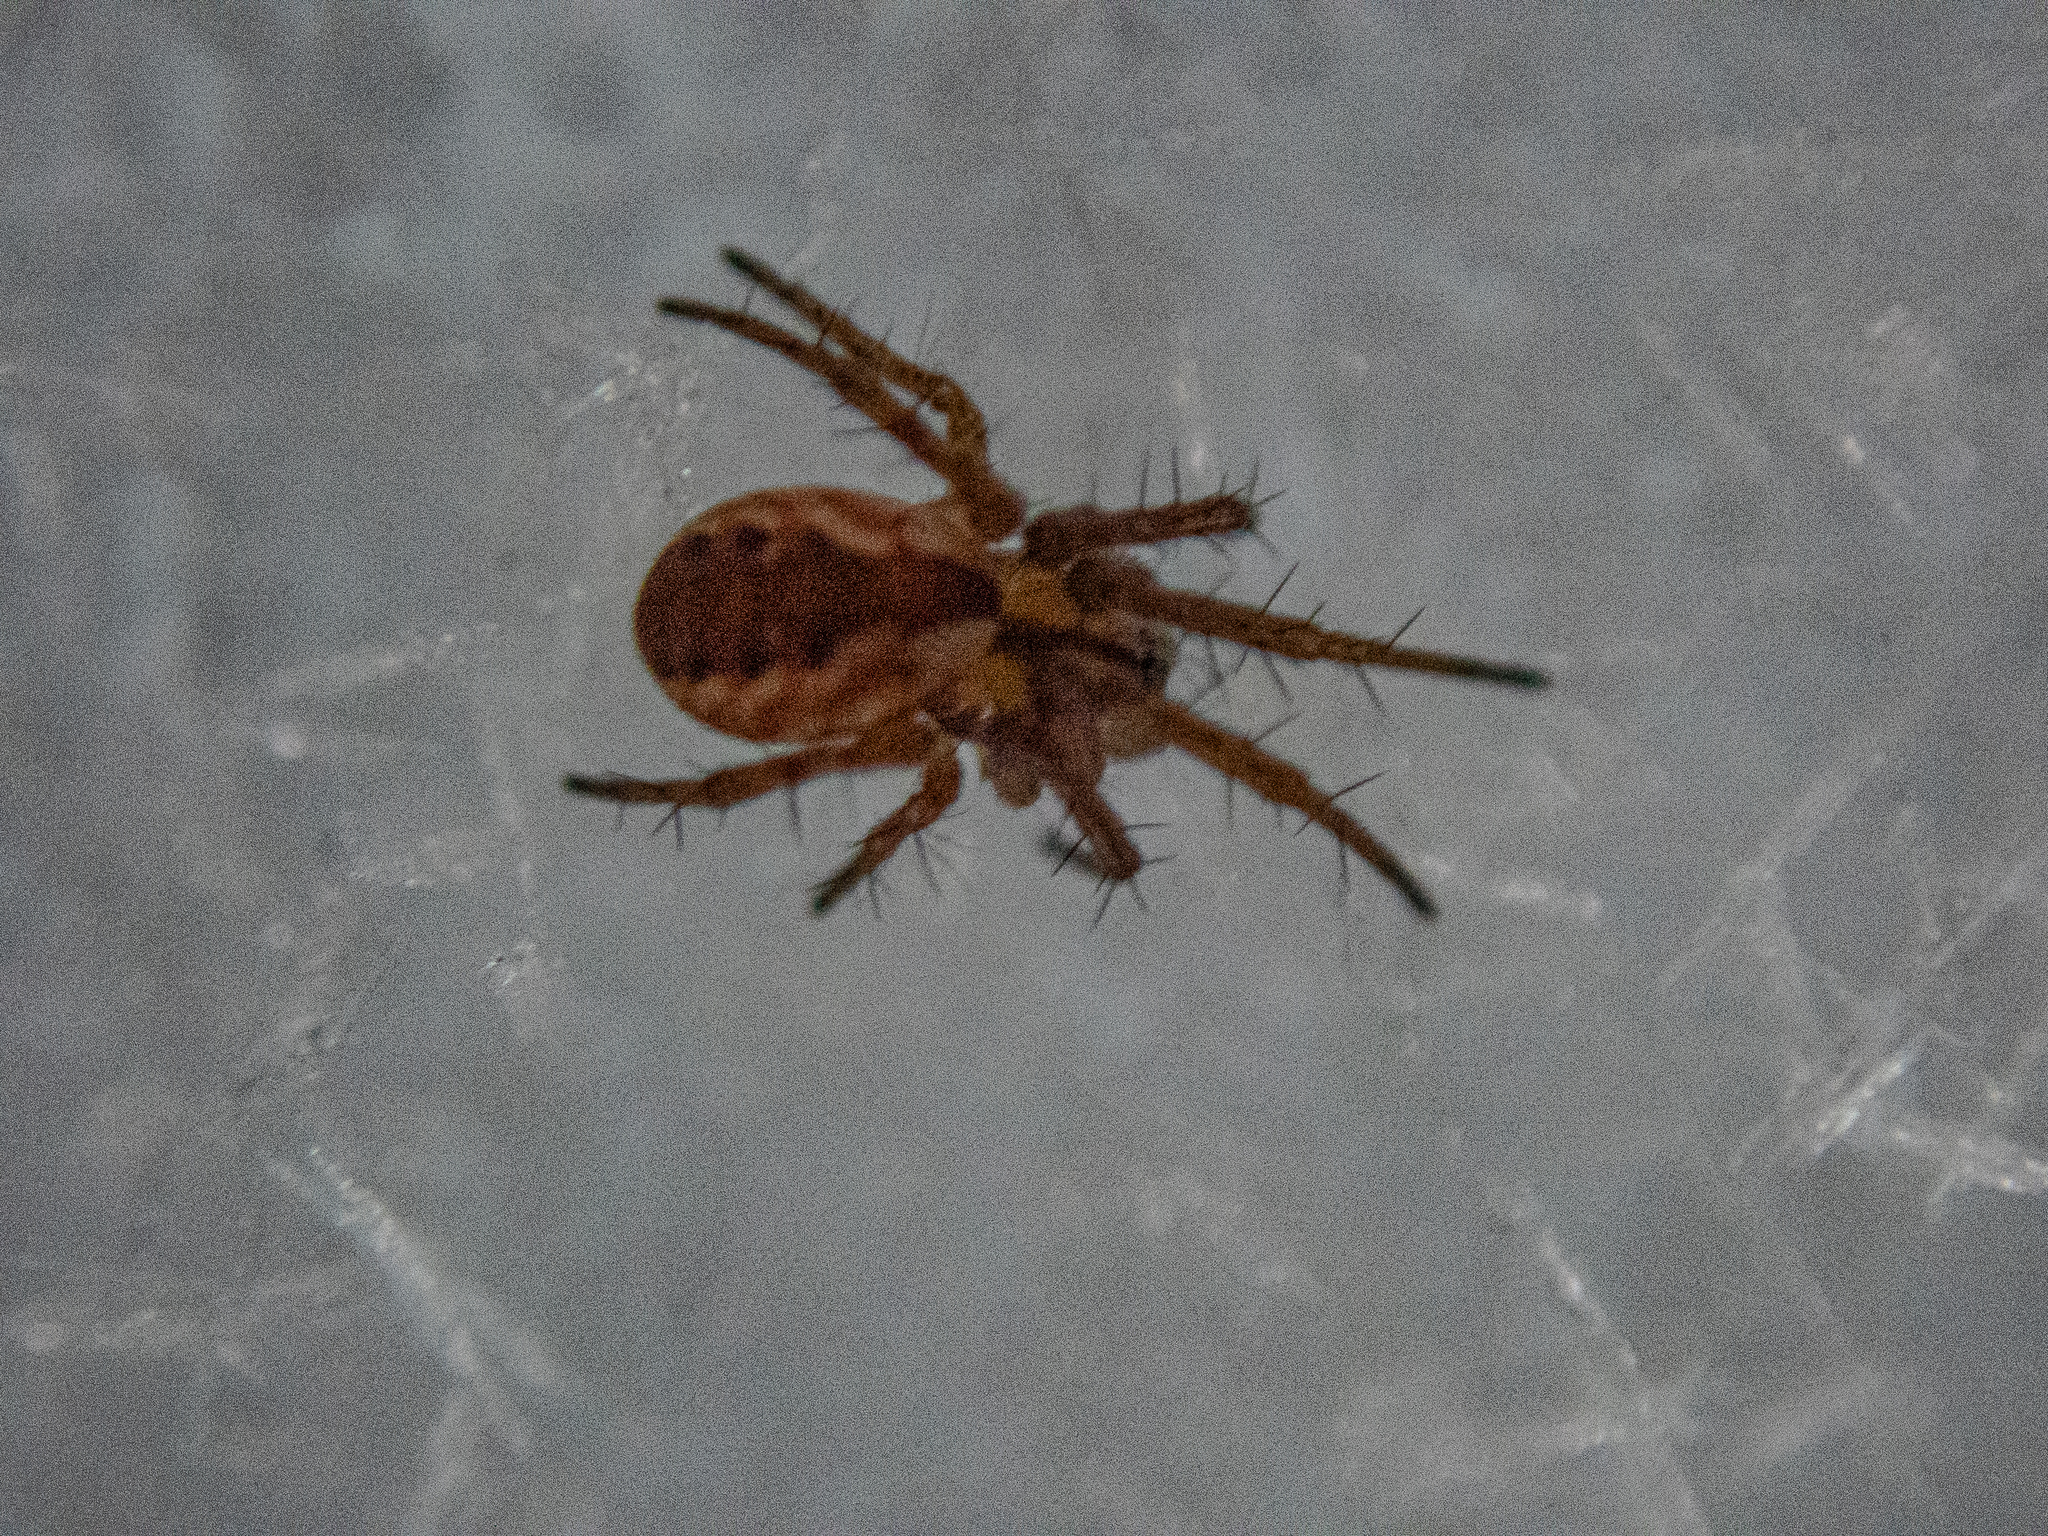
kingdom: Animalia
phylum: Arthropoda
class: Arachnida
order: Araneae
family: Araneidae
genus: Mangora
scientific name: Mangora placida
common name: Tuft-legged orbweaver
